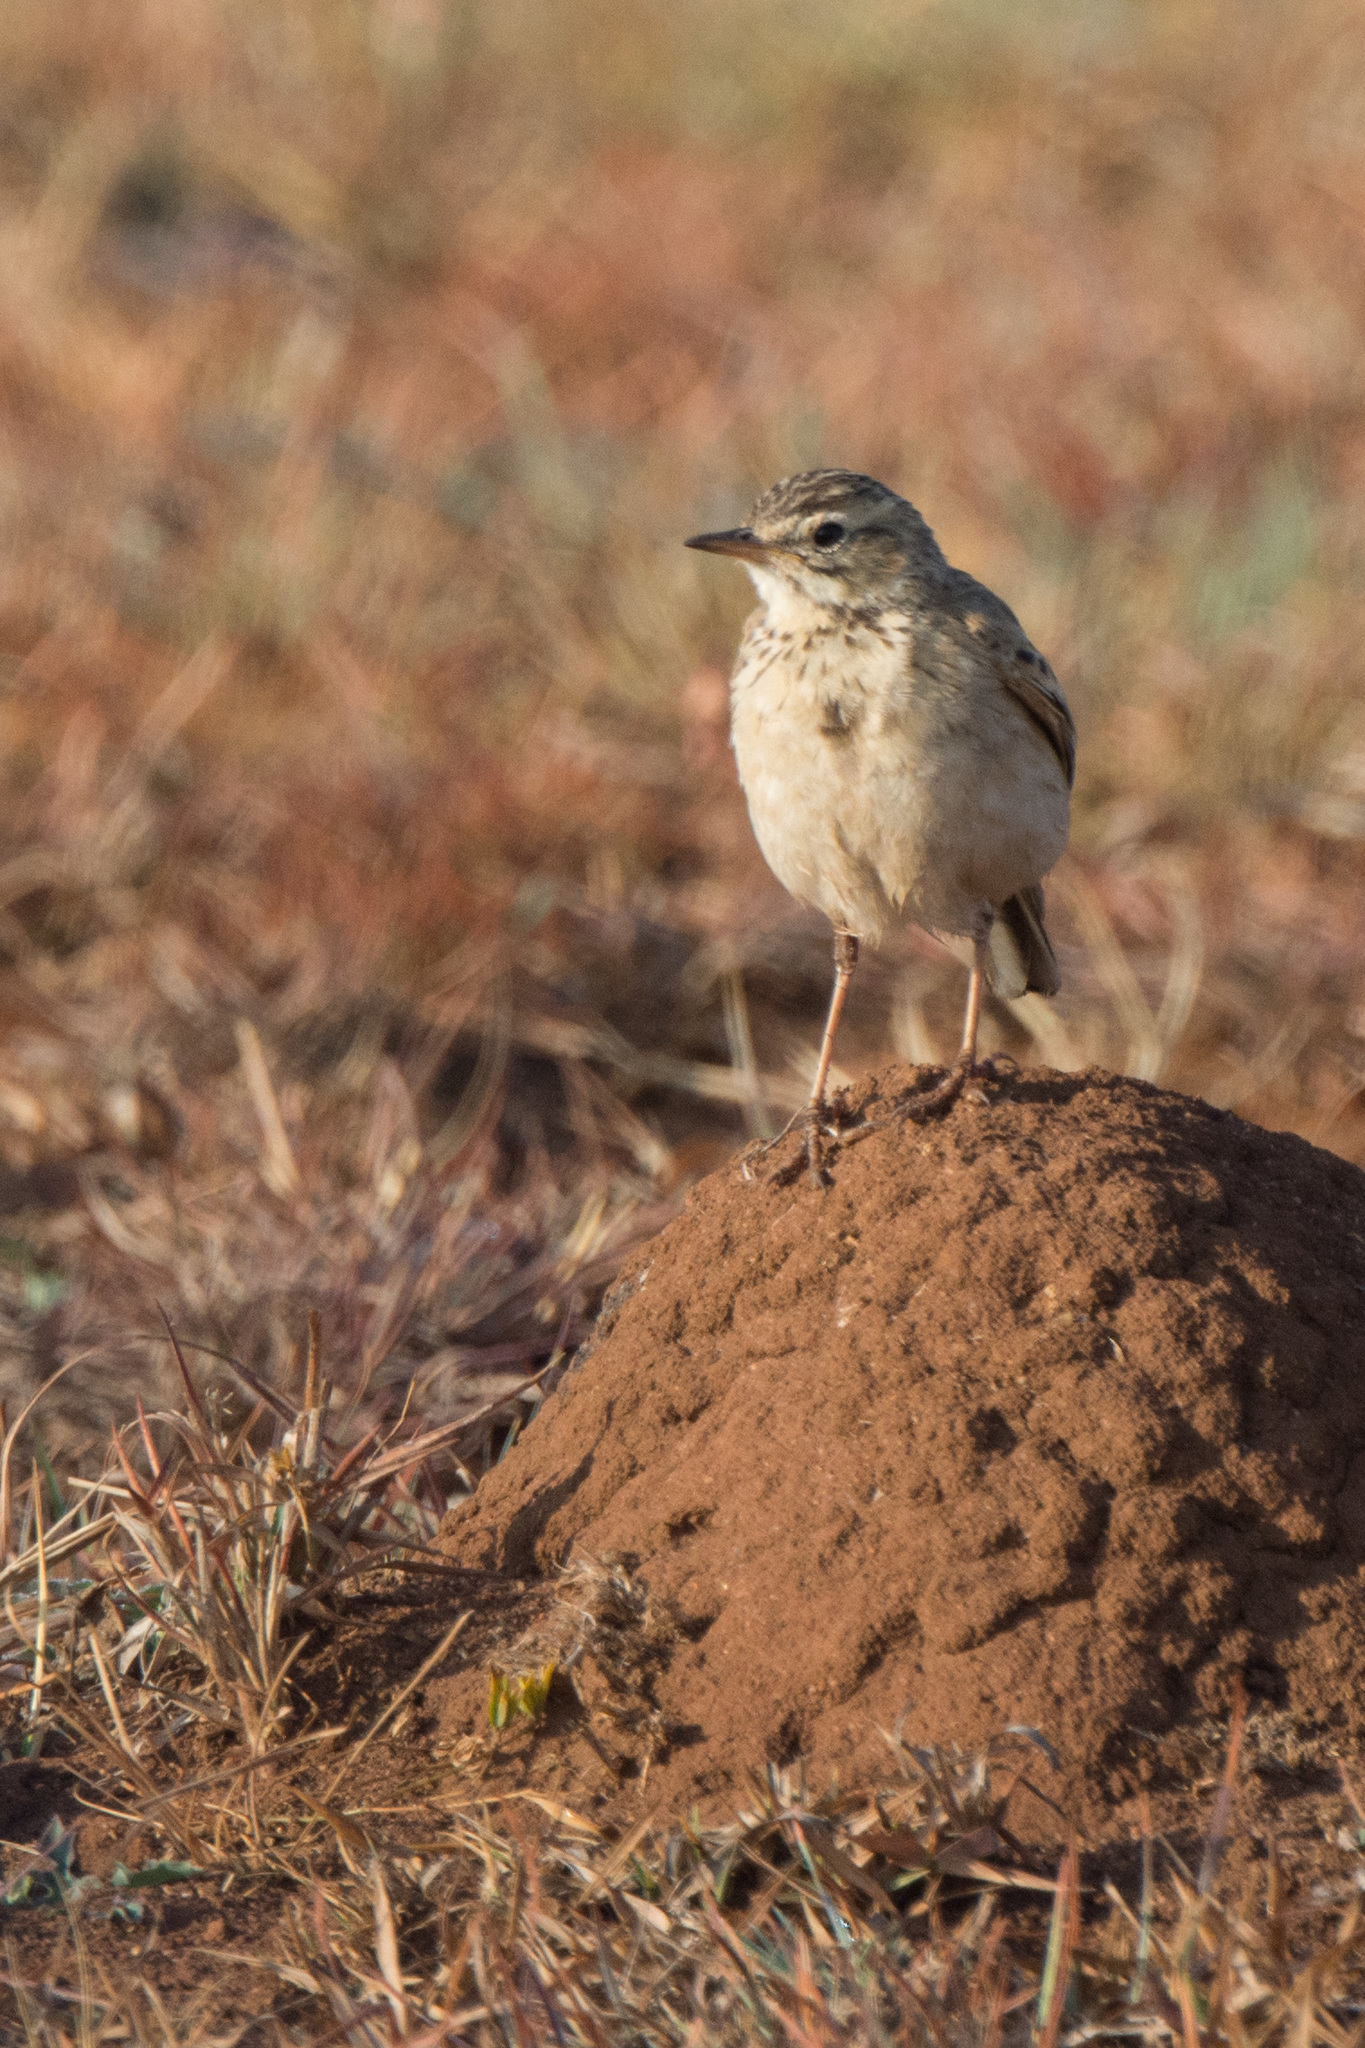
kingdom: Animalia
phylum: Chordata
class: Aves
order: Passeriformes
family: Motacillidae
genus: Anthus
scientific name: Anthus cinnamomeus
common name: African pipit
